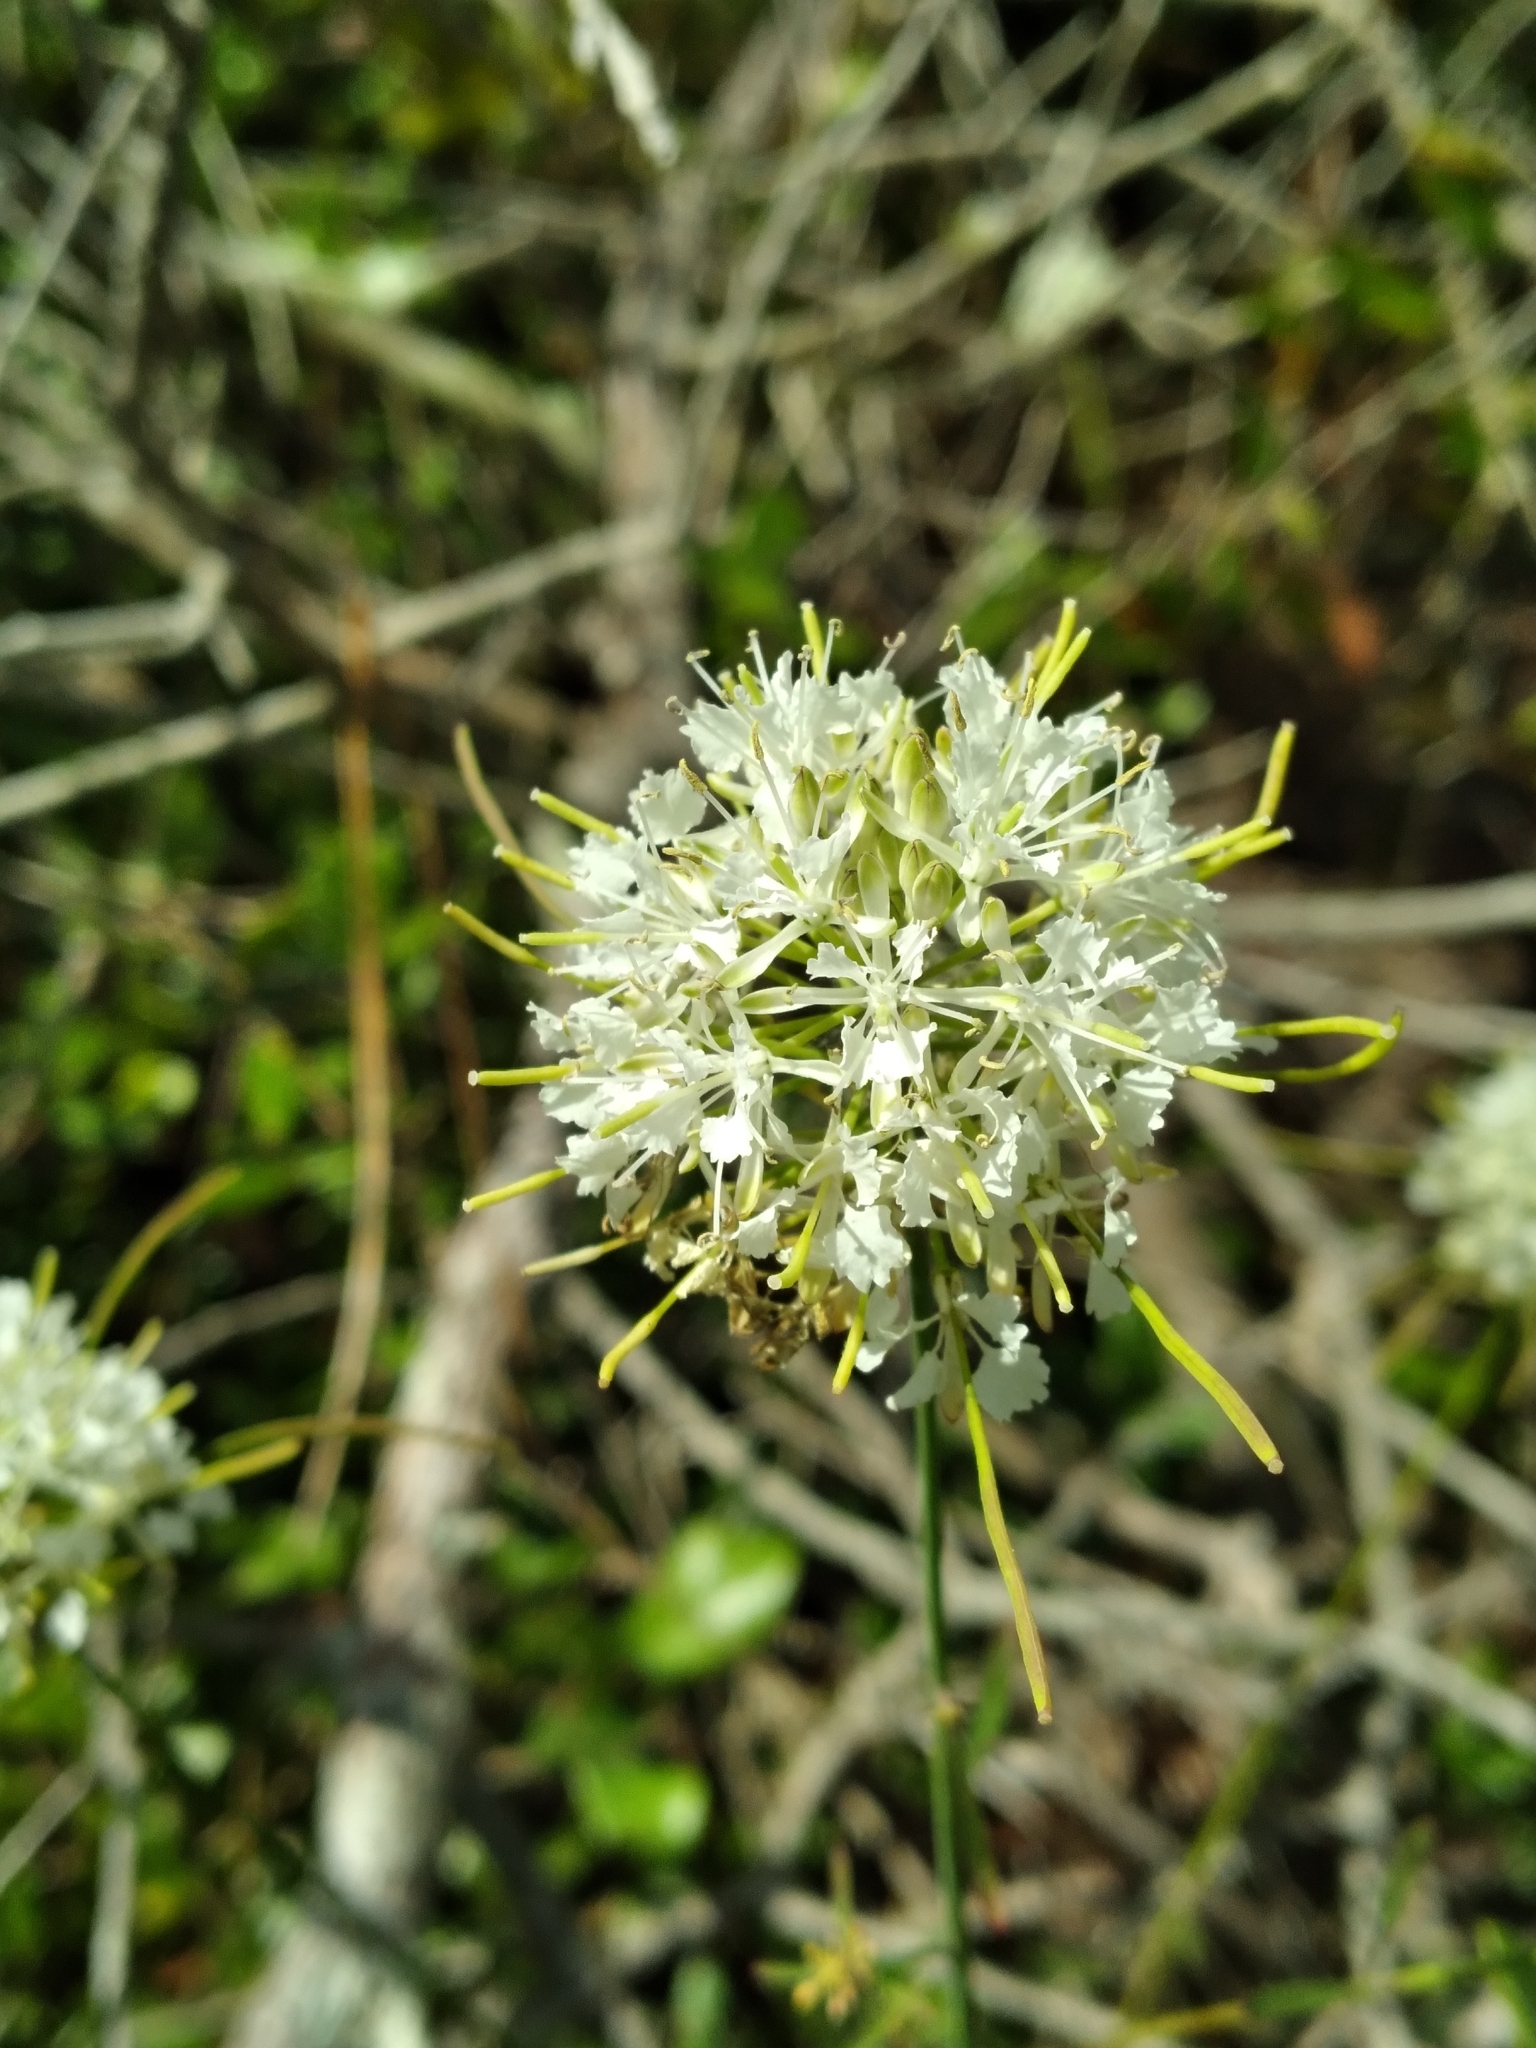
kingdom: Plantae
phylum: Tracheophyta
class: Magnoliopsida
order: Brassicales
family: Brassicaceae
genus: Warea
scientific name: Warea carteri
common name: Carter's mustard
